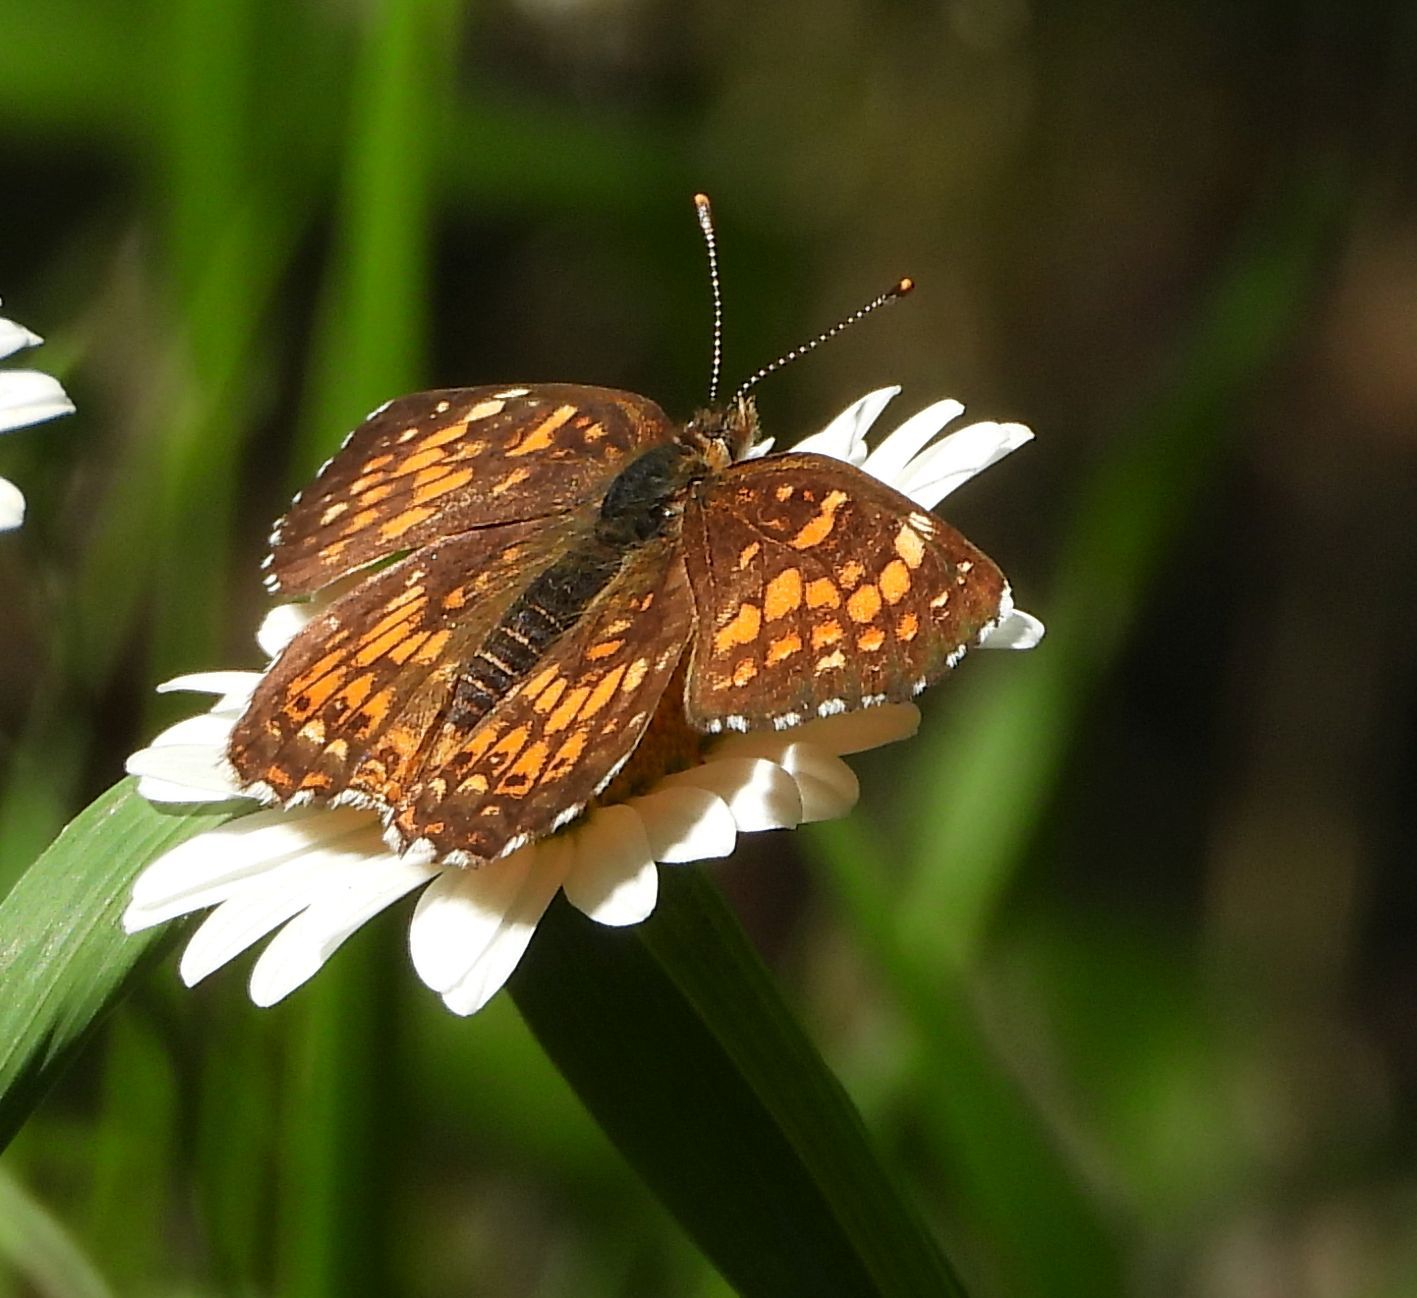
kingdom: Animalia
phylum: Arthropoda
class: Insecta
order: Lepidoptera
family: Nymphalidae
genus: Chlosyne
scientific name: Chlosyne harrisii
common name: Harris's checkerspot
